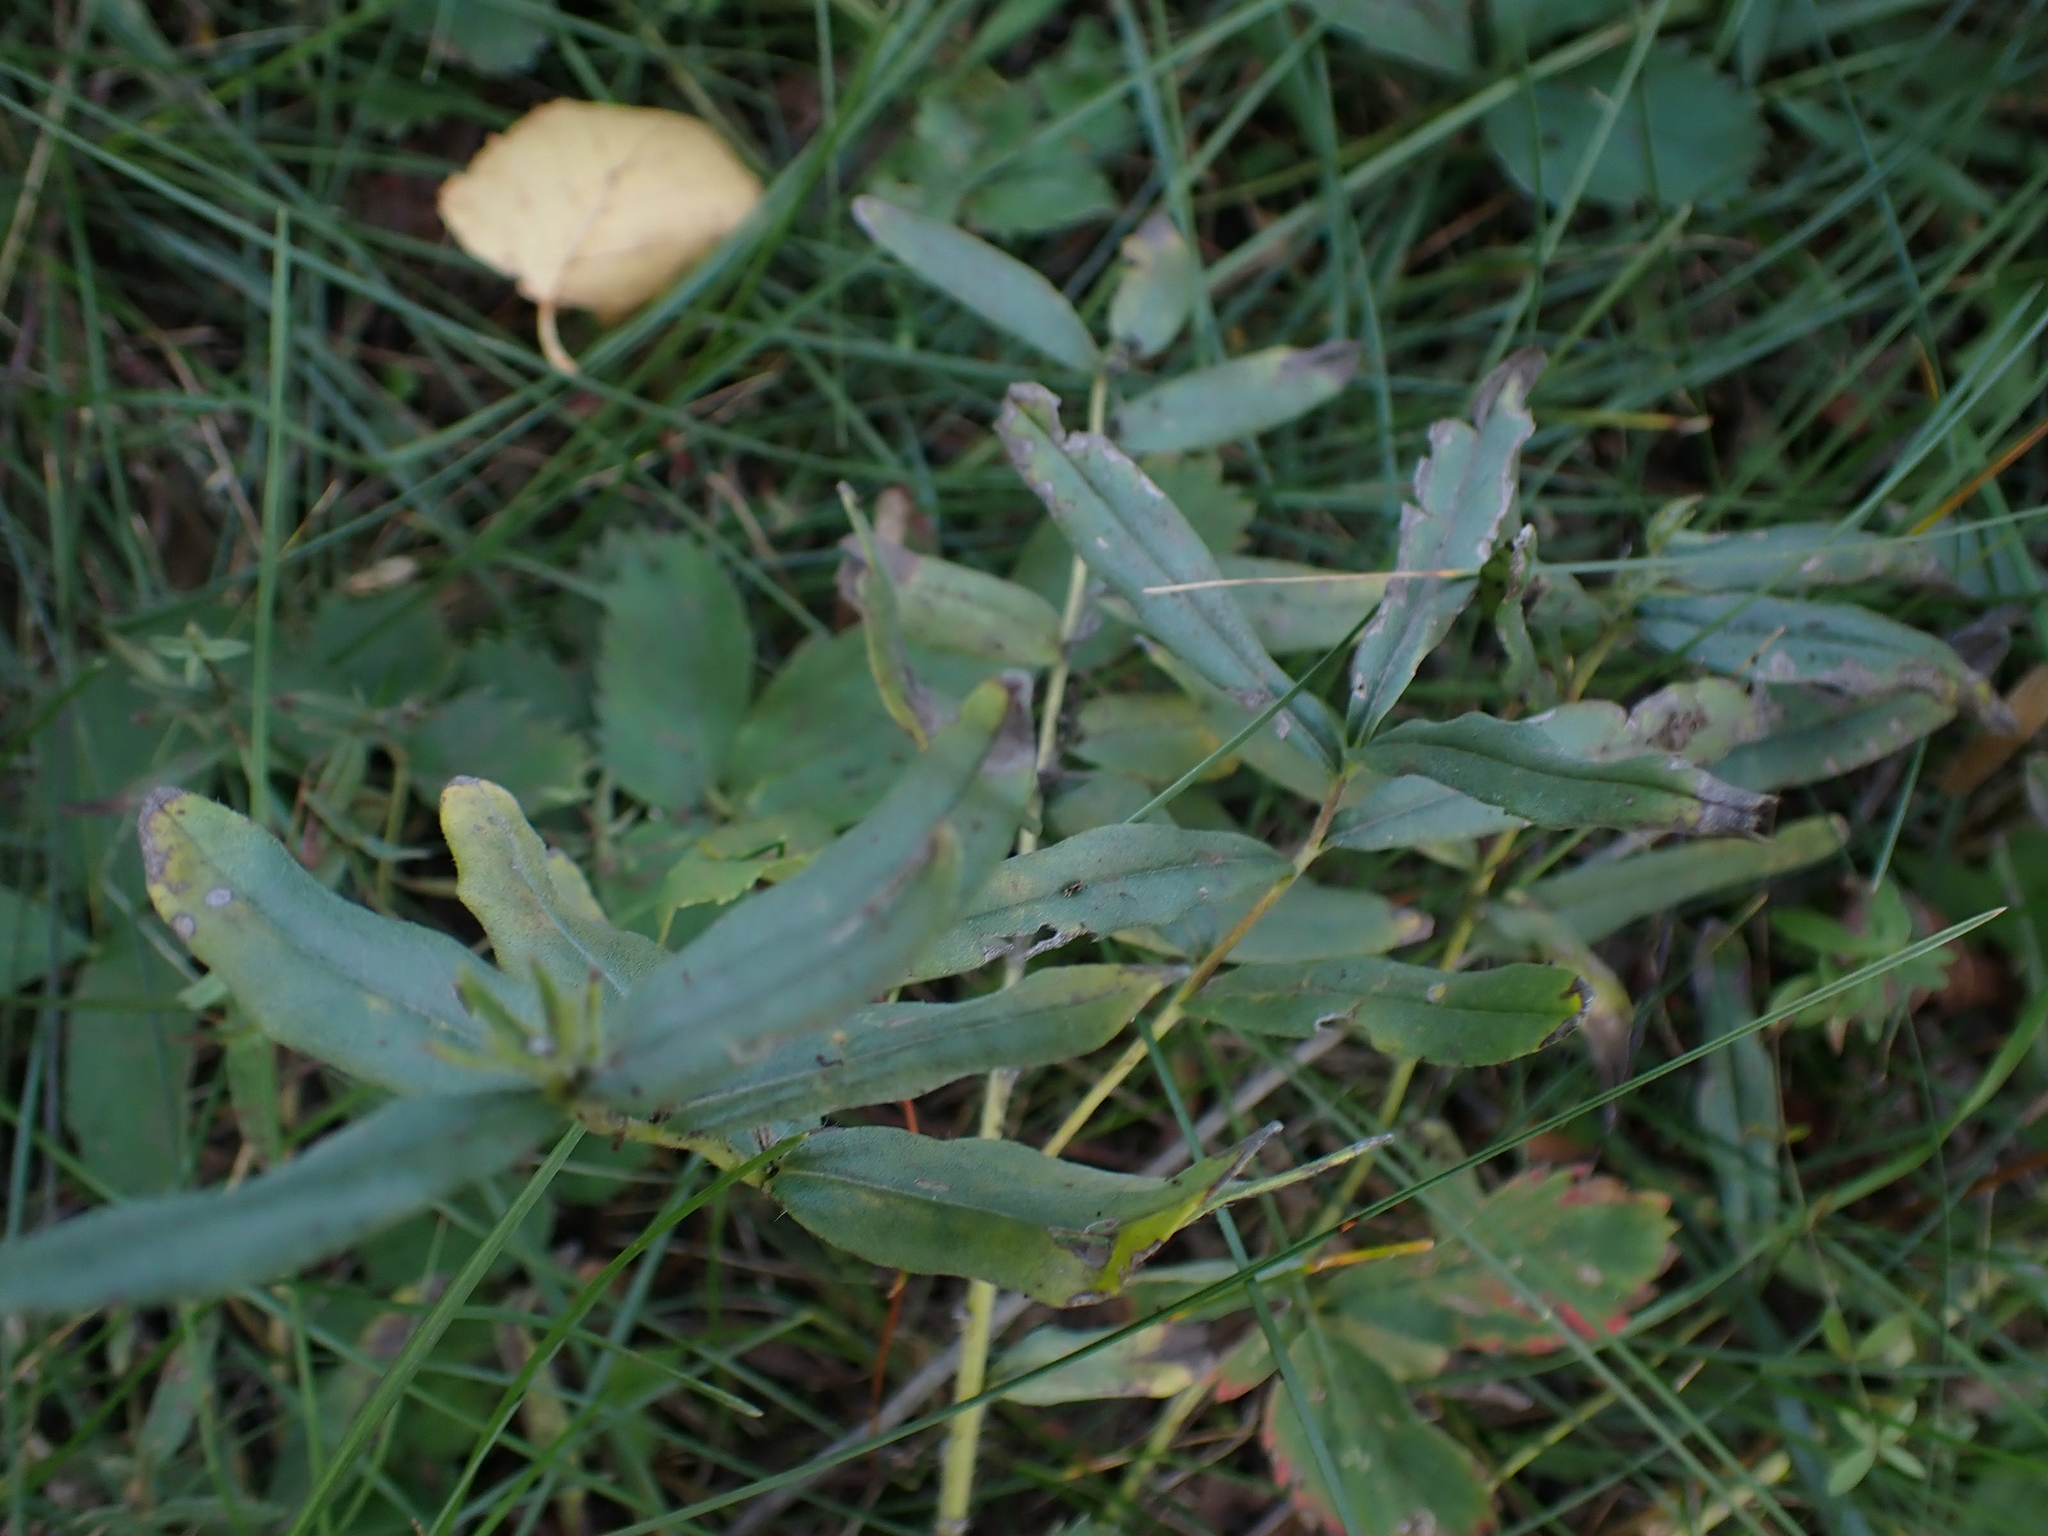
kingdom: Plantae
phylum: Tracheophyta
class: Magnoliopsida
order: Boraginales
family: Boraginaceae
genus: Lithospermum
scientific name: Lithospermum canescens
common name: Hoary puccoon
